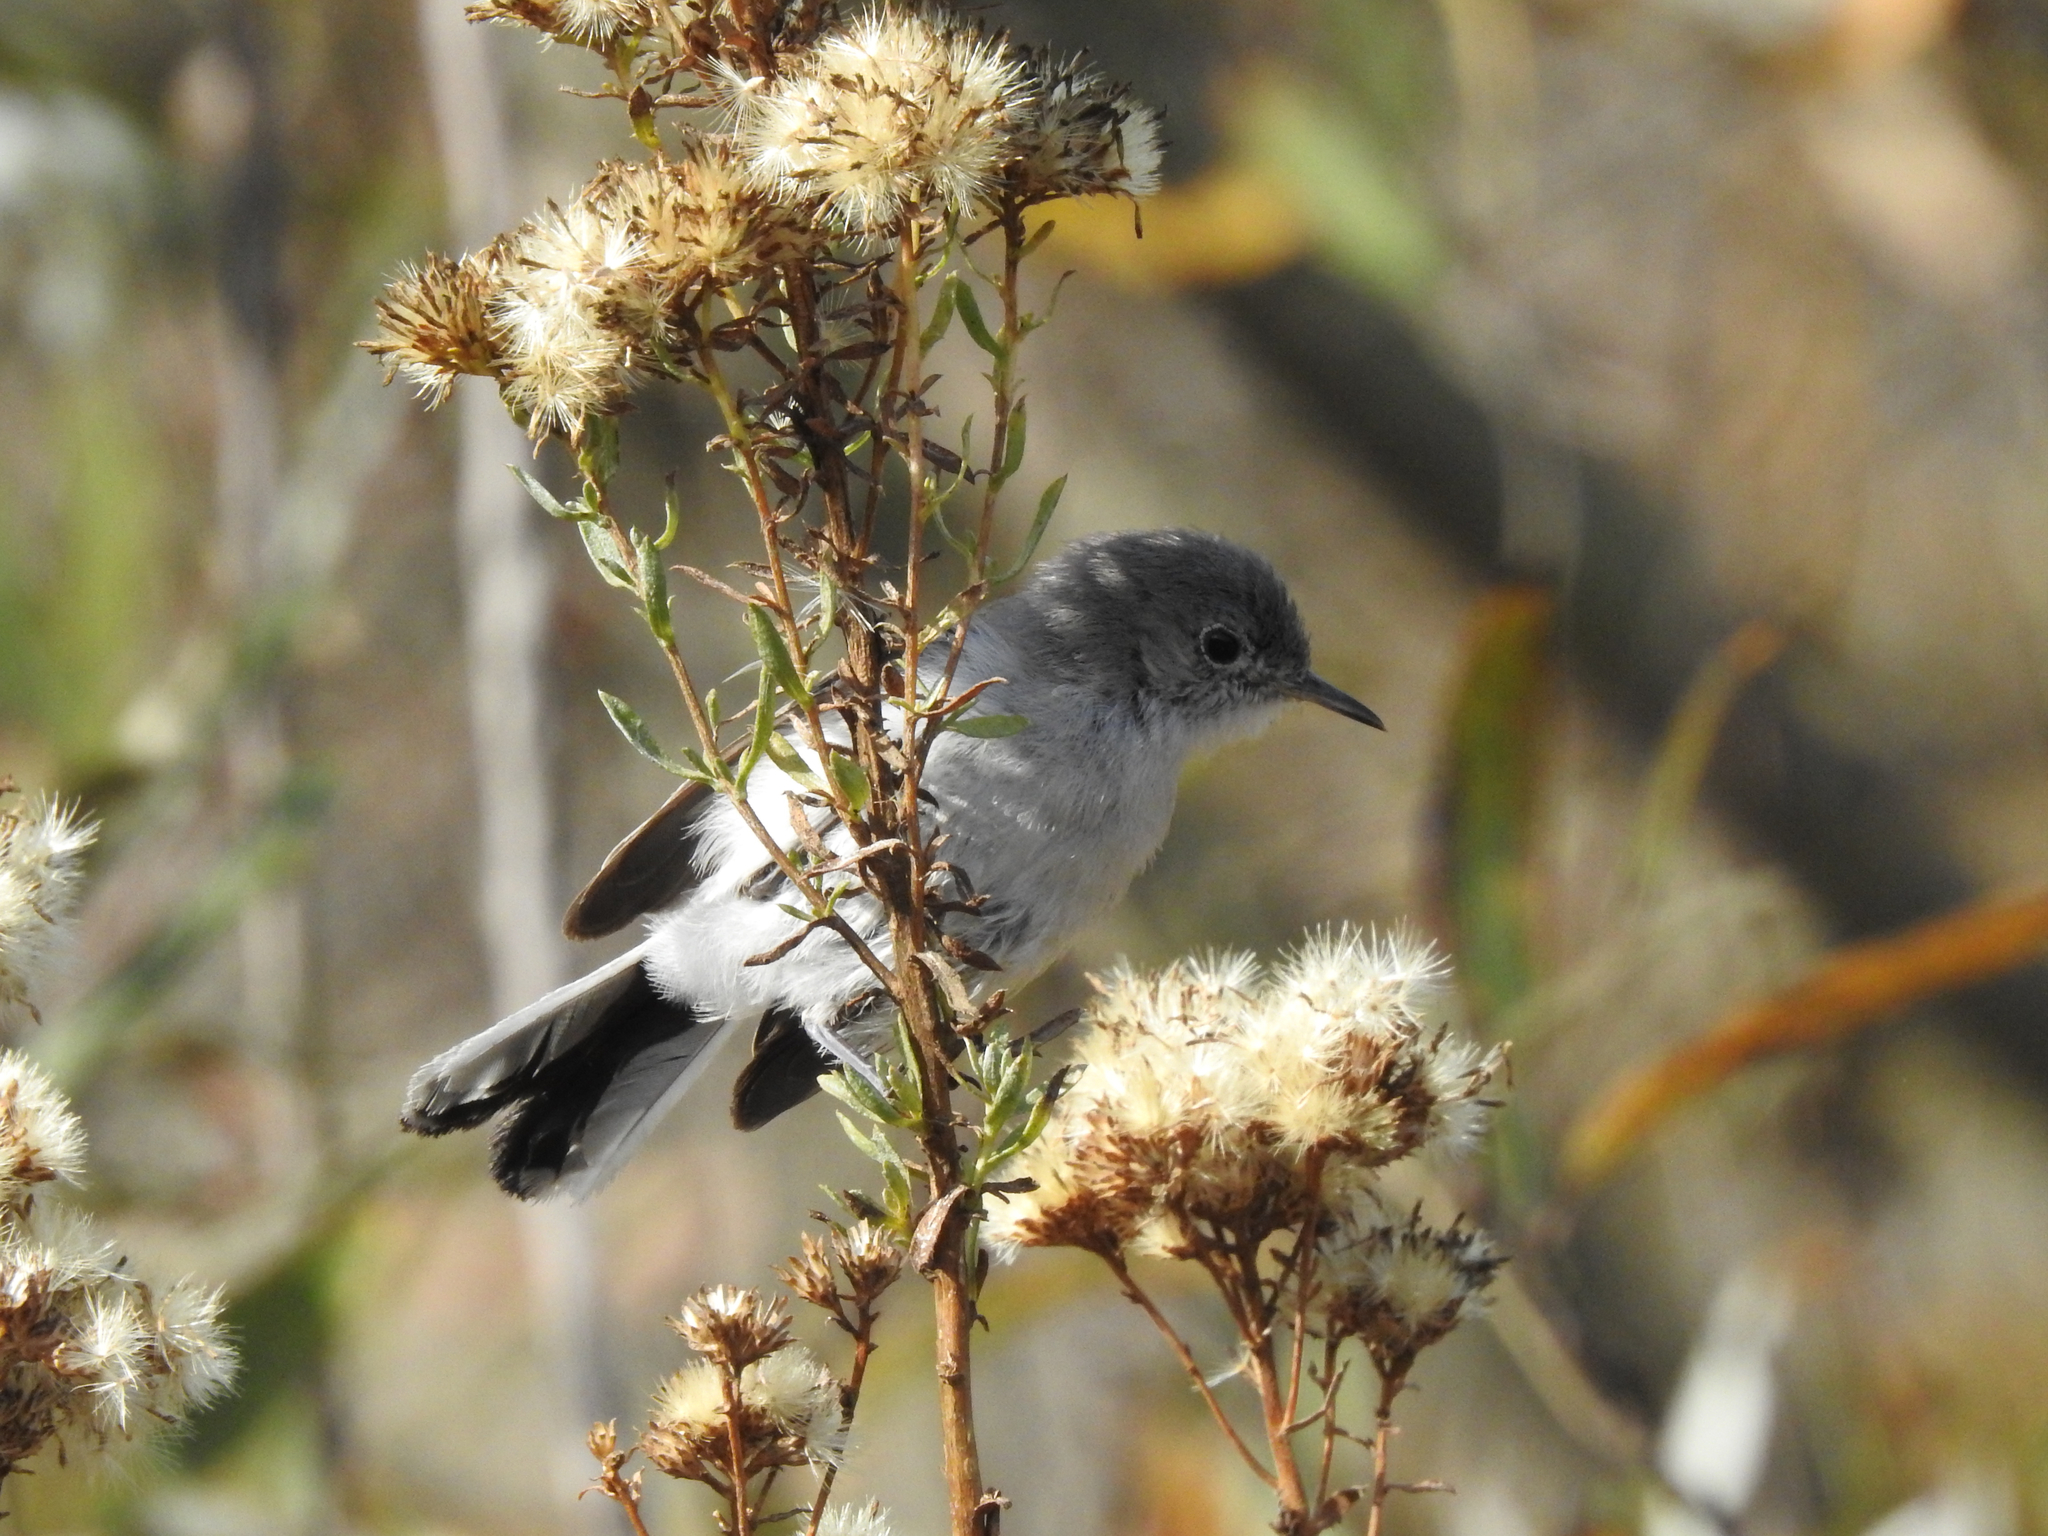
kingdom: Animalia
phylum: Chordata
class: Aves
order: Passeriformes
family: Polioptilidae
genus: Polioptila
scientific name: Polioptila caerulea
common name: Blue-gray gnatcatcher
